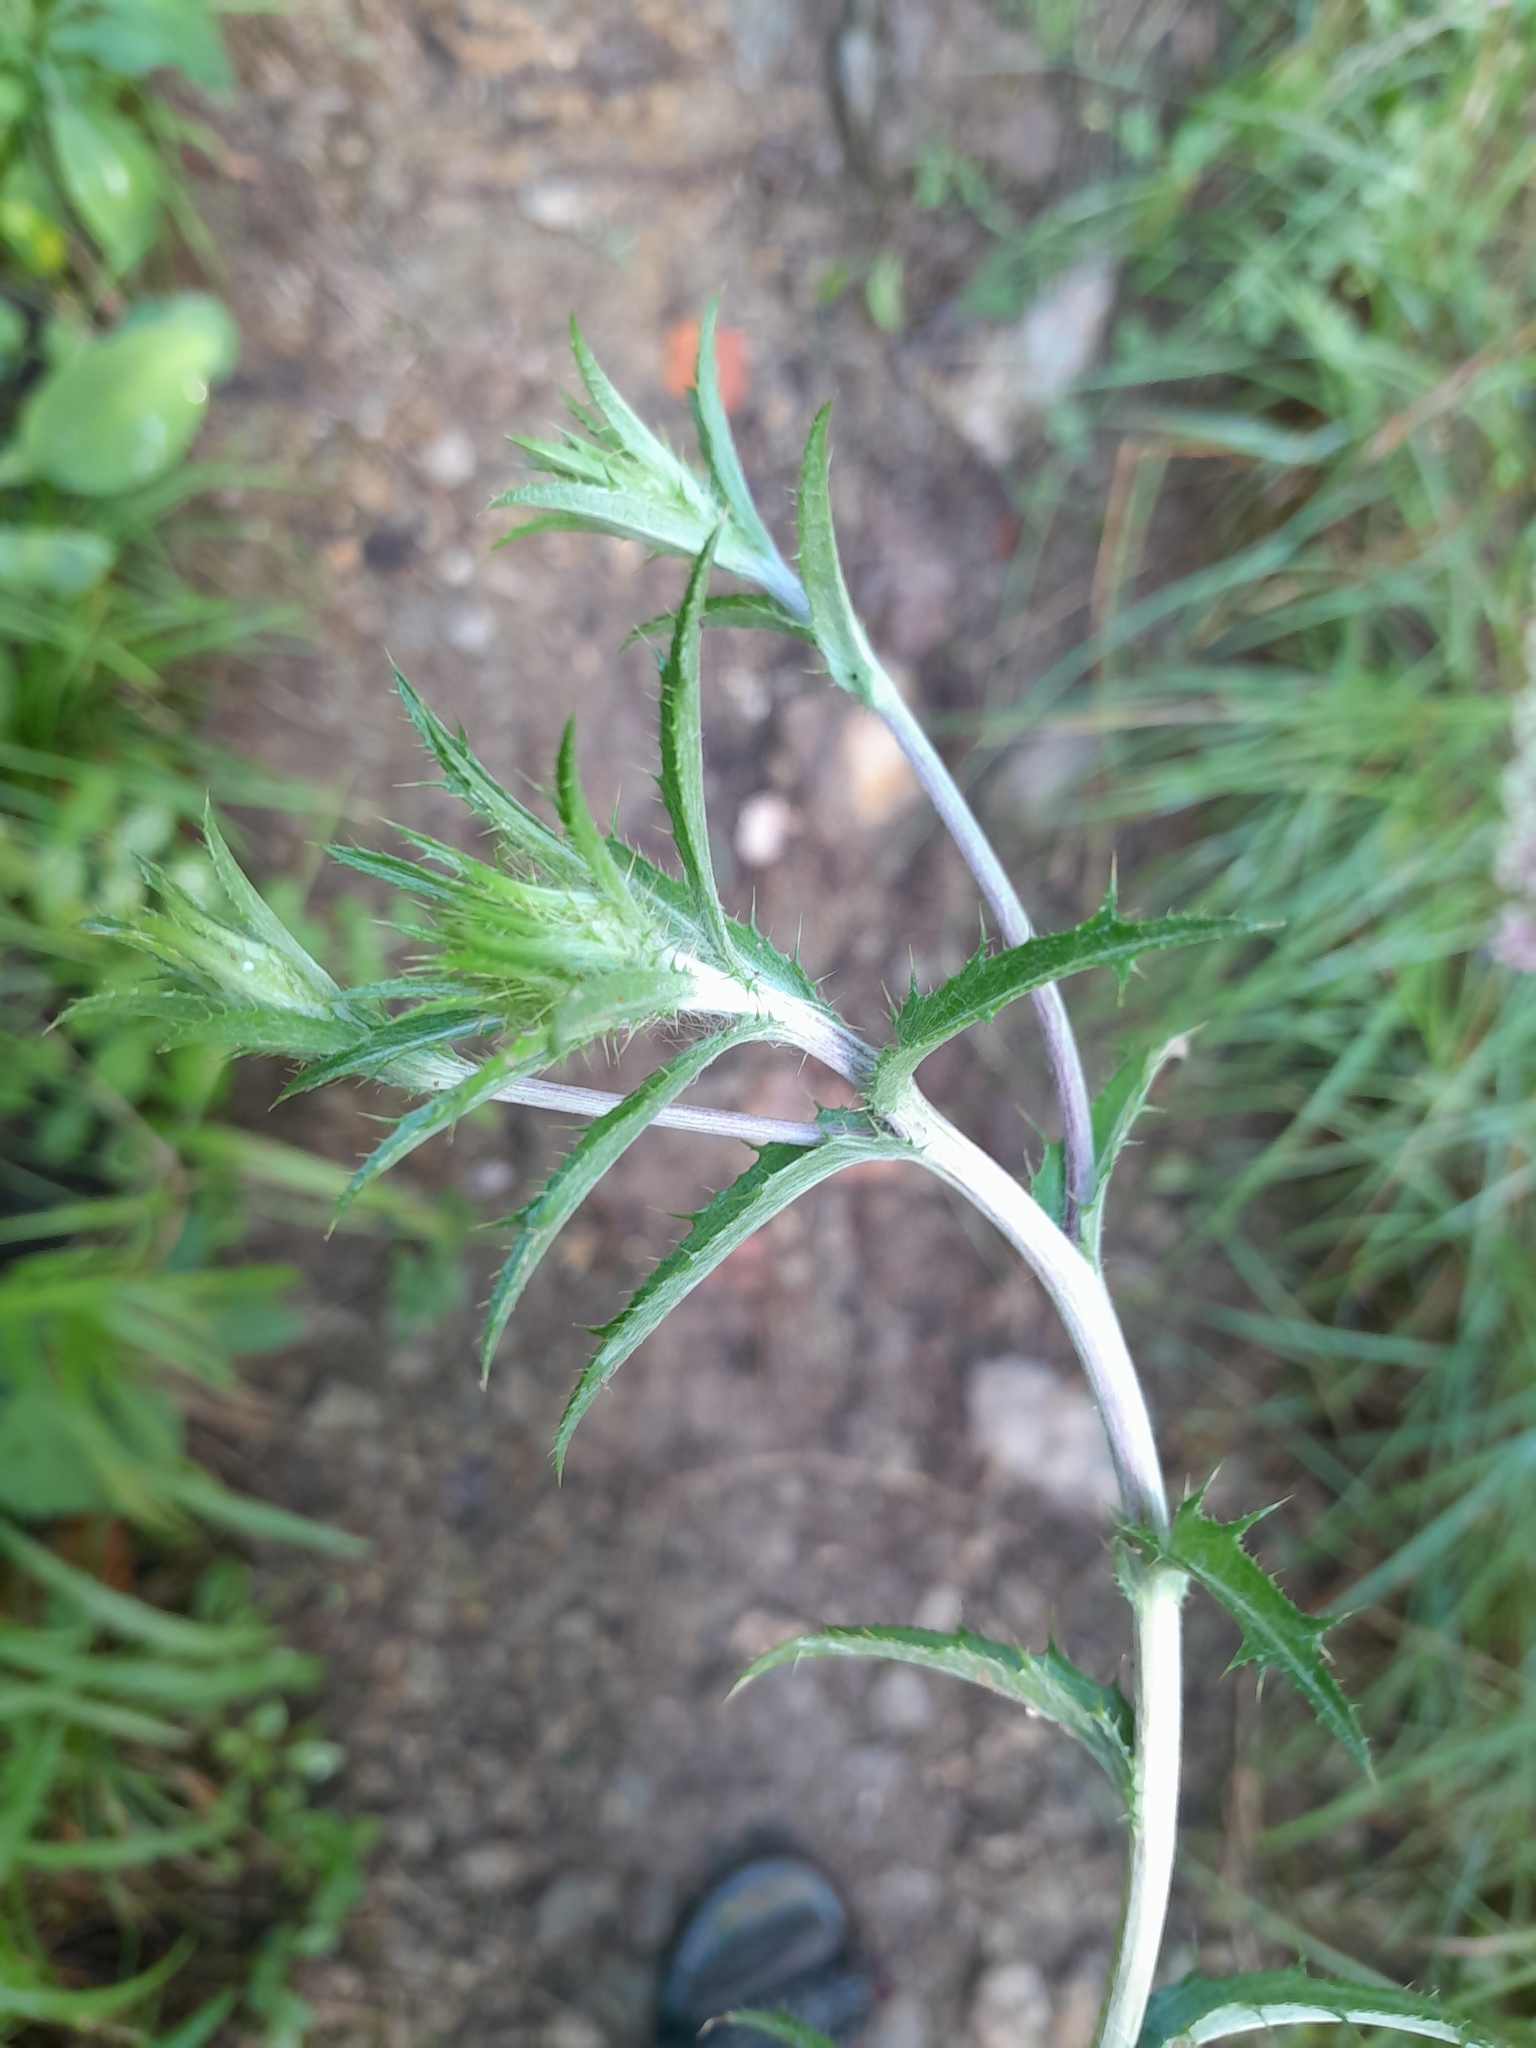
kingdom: Plantae
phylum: Tracheophyta
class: Magnoliopsida
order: Asterales
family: Asteraceae
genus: Carlina
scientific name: Carlina vulgaris
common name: Carline thistle
